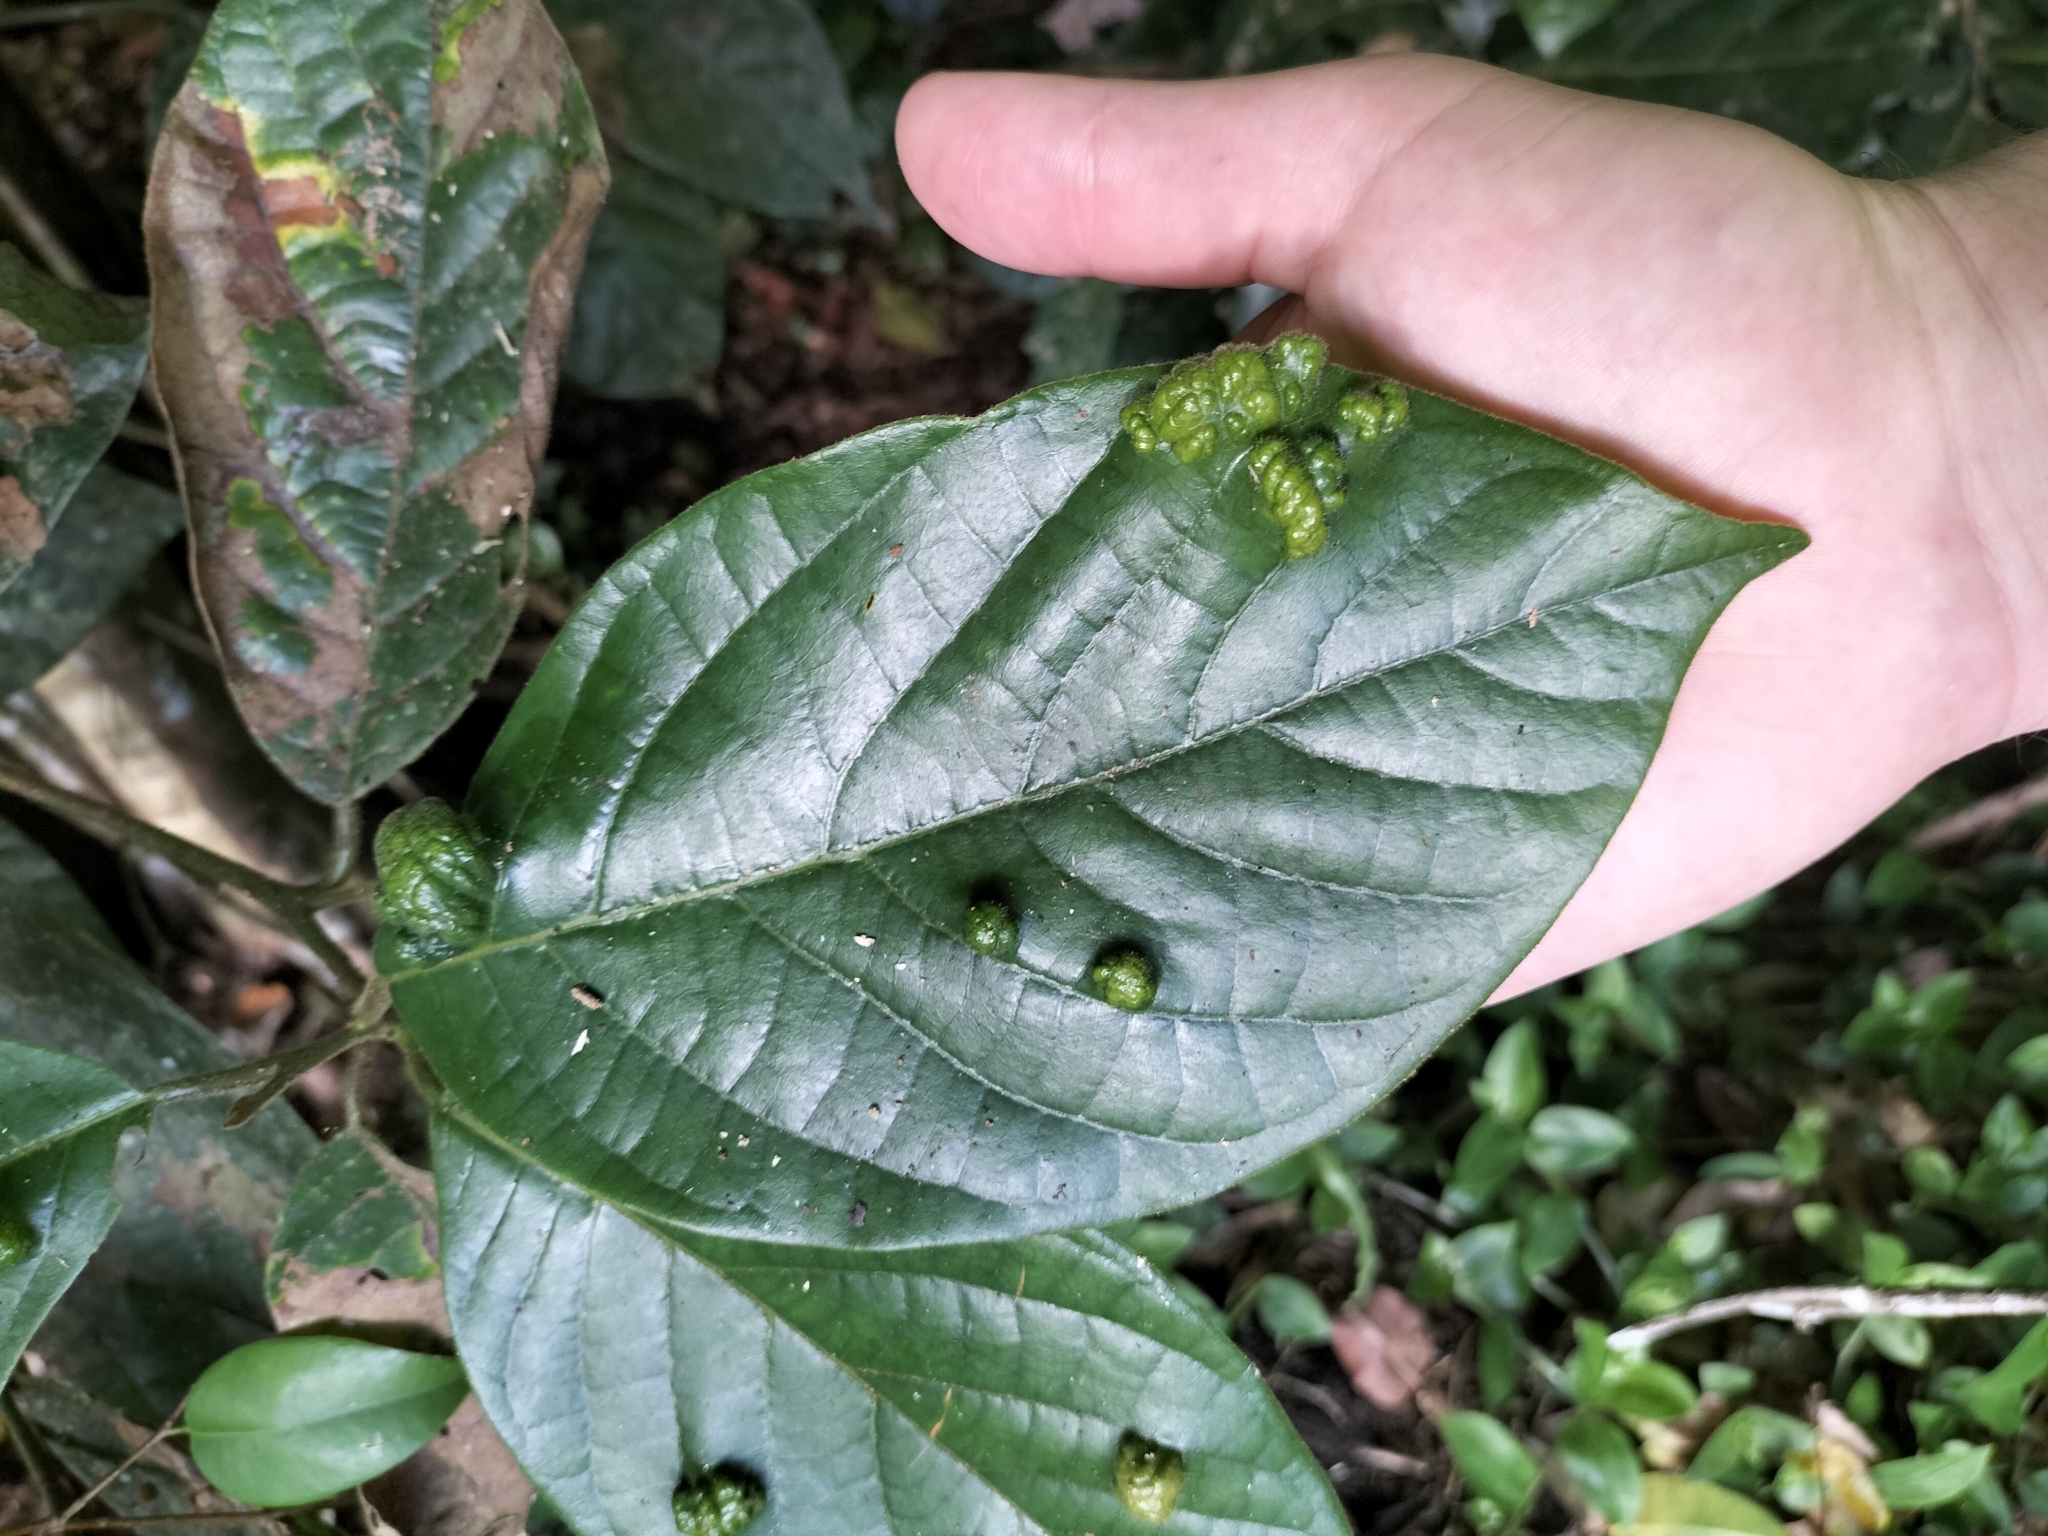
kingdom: Plantae
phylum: Tracheophyta
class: Magnoliopsida
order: Laurales
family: Lauraceae
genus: Litsea
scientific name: Litsea leefeana
